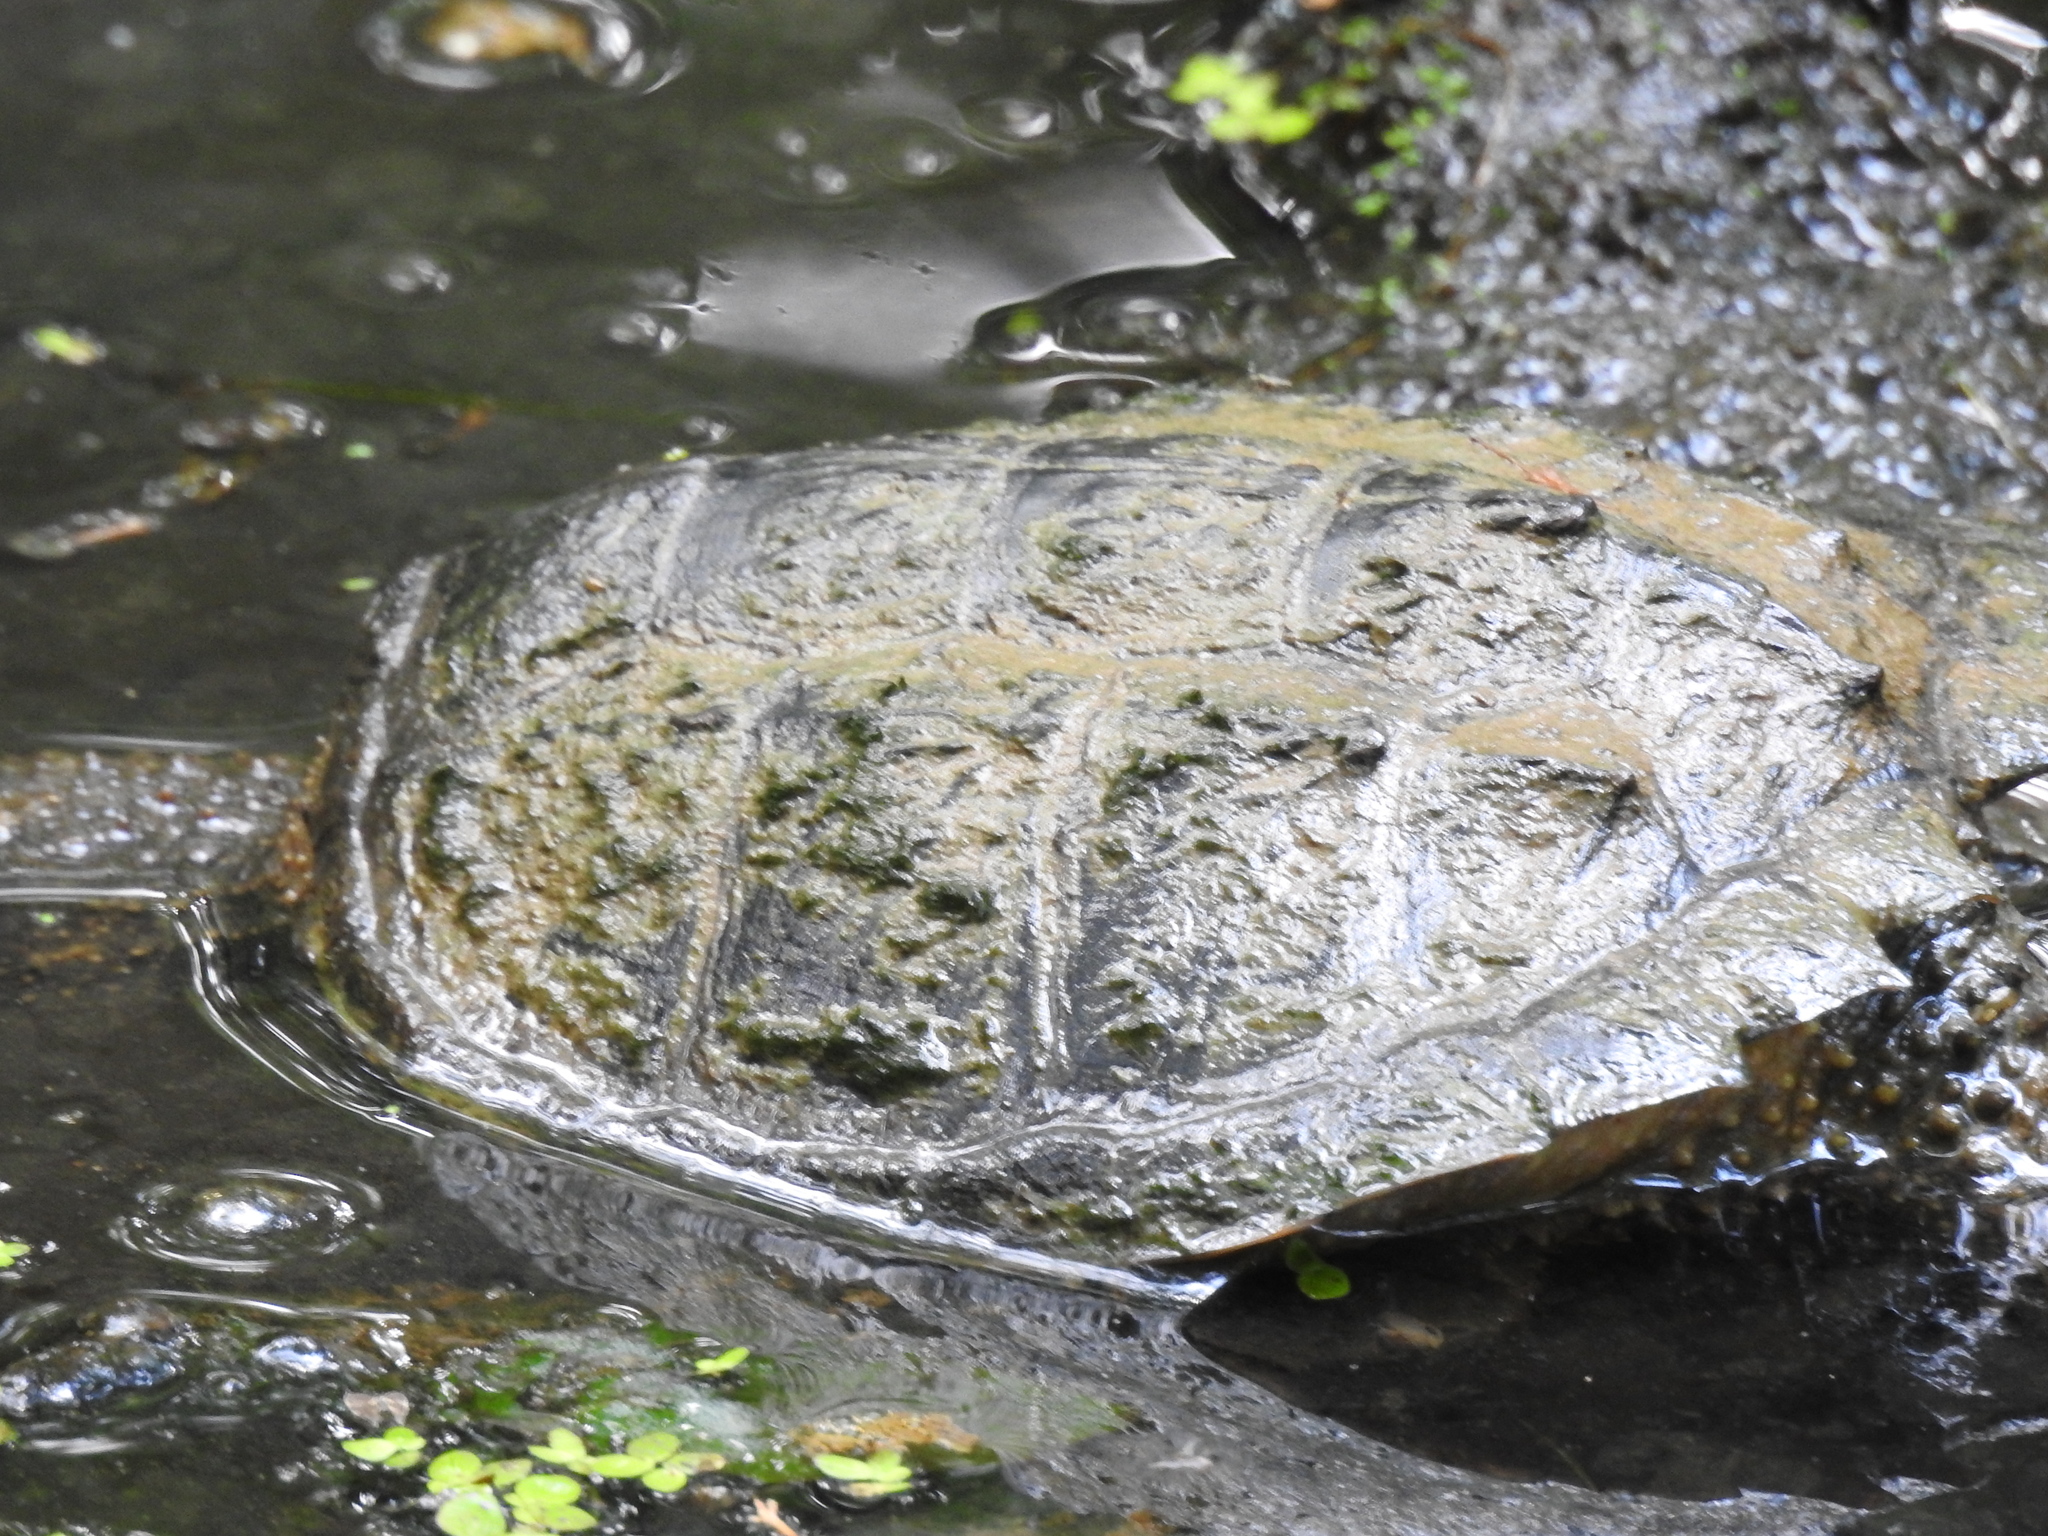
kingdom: Animalia
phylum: Chordata
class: Testudines
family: Chelydridae
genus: Chelydra
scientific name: Chelydra serpentina
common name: Common snapping turtle
